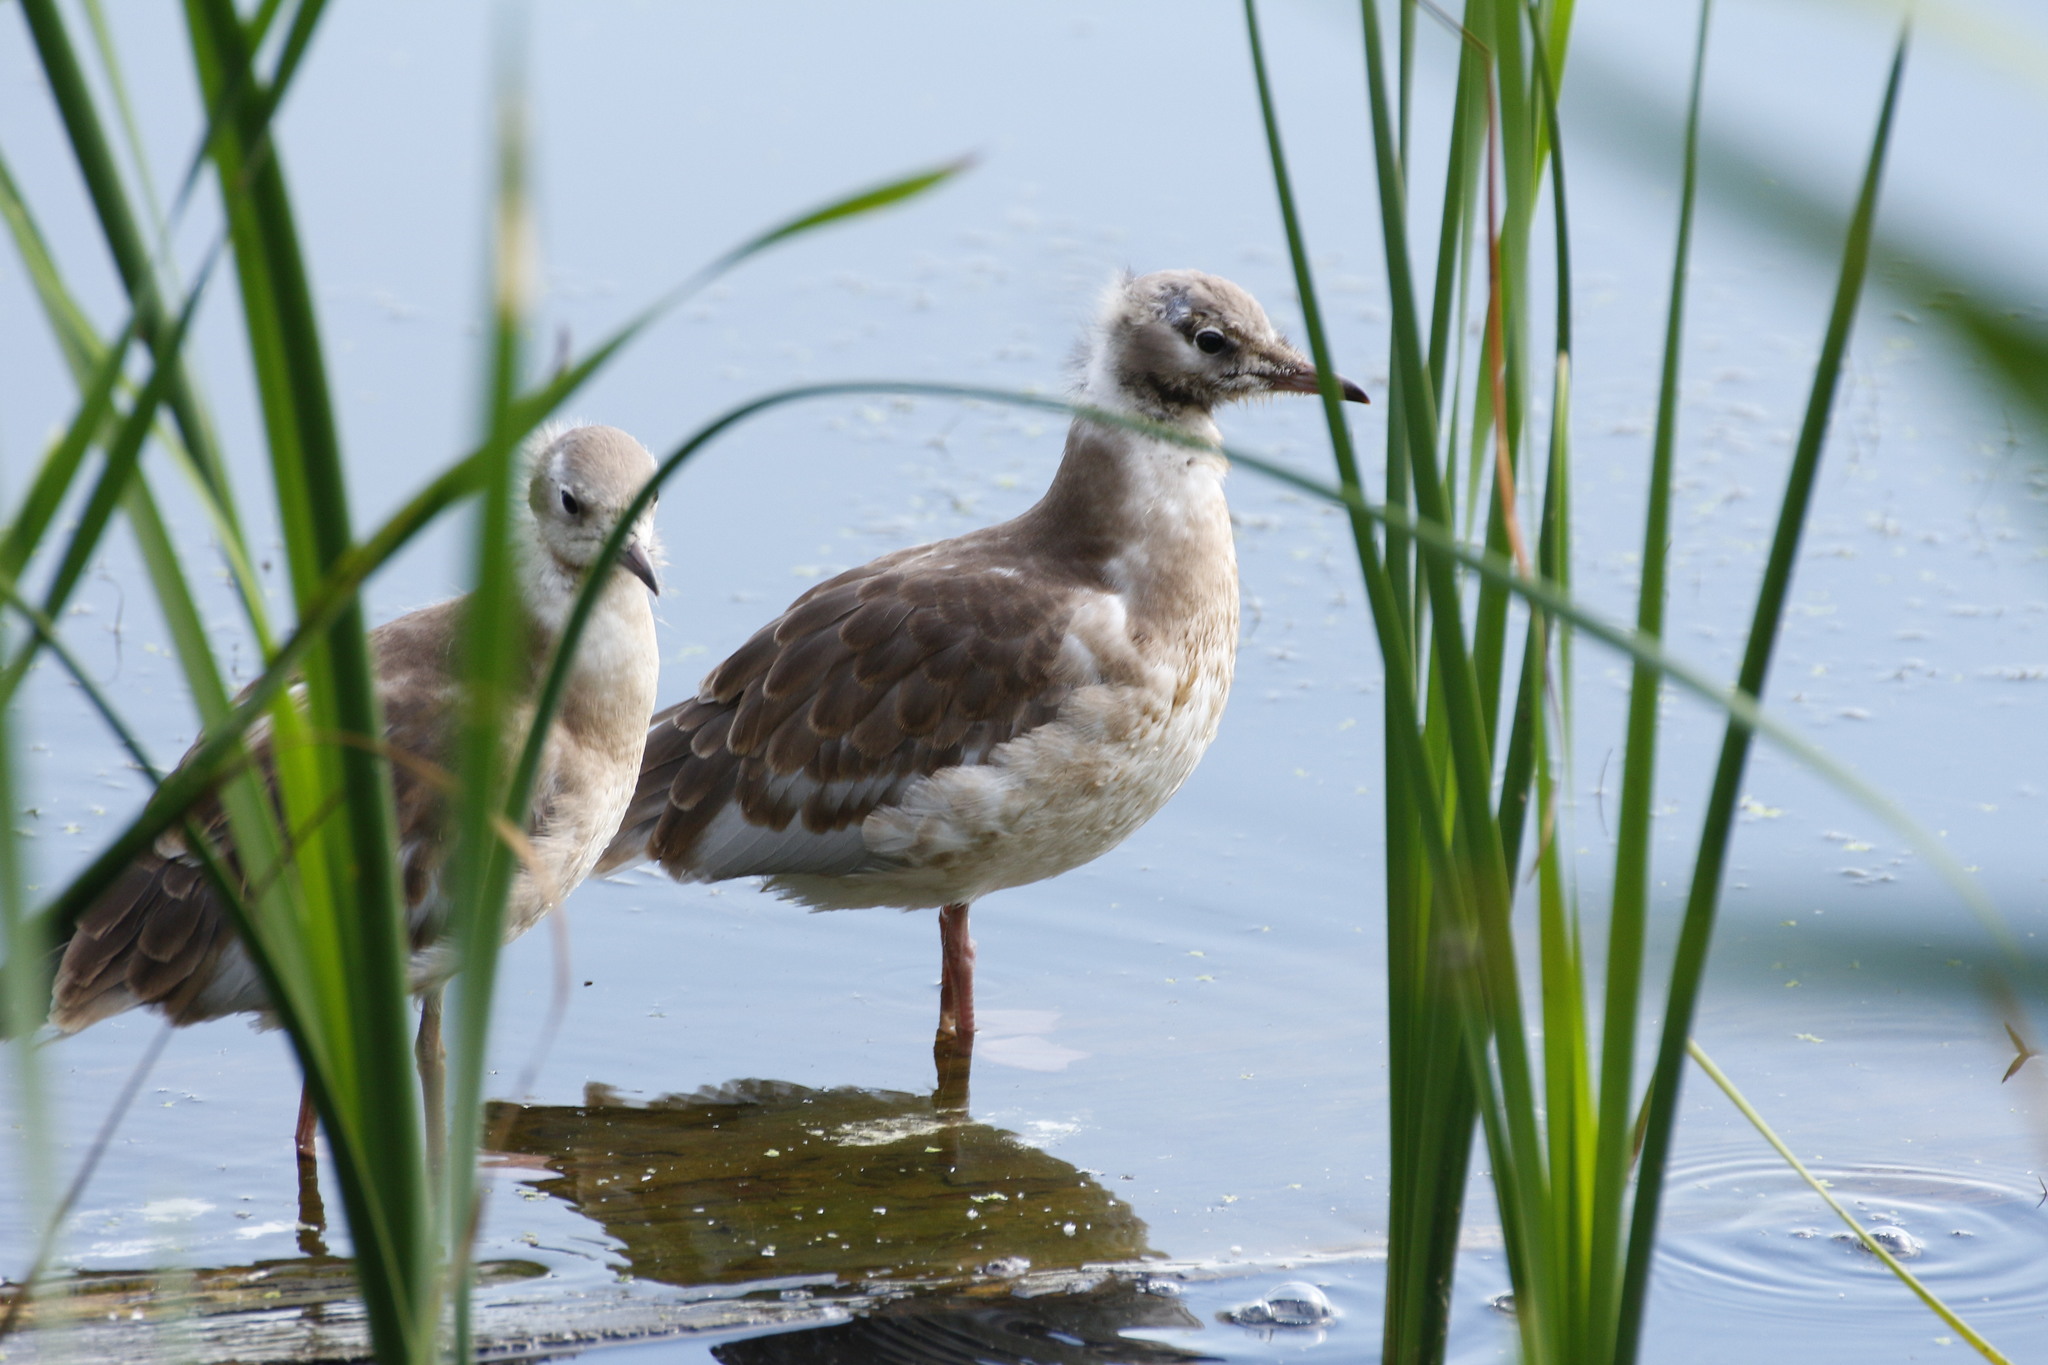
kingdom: Animalia
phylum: Chordata
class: Aves
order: Charadriiformes
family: Laridae
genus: Chroicocephalus
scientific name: Chroicocephalus ridibundus
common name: Black-headed gull
